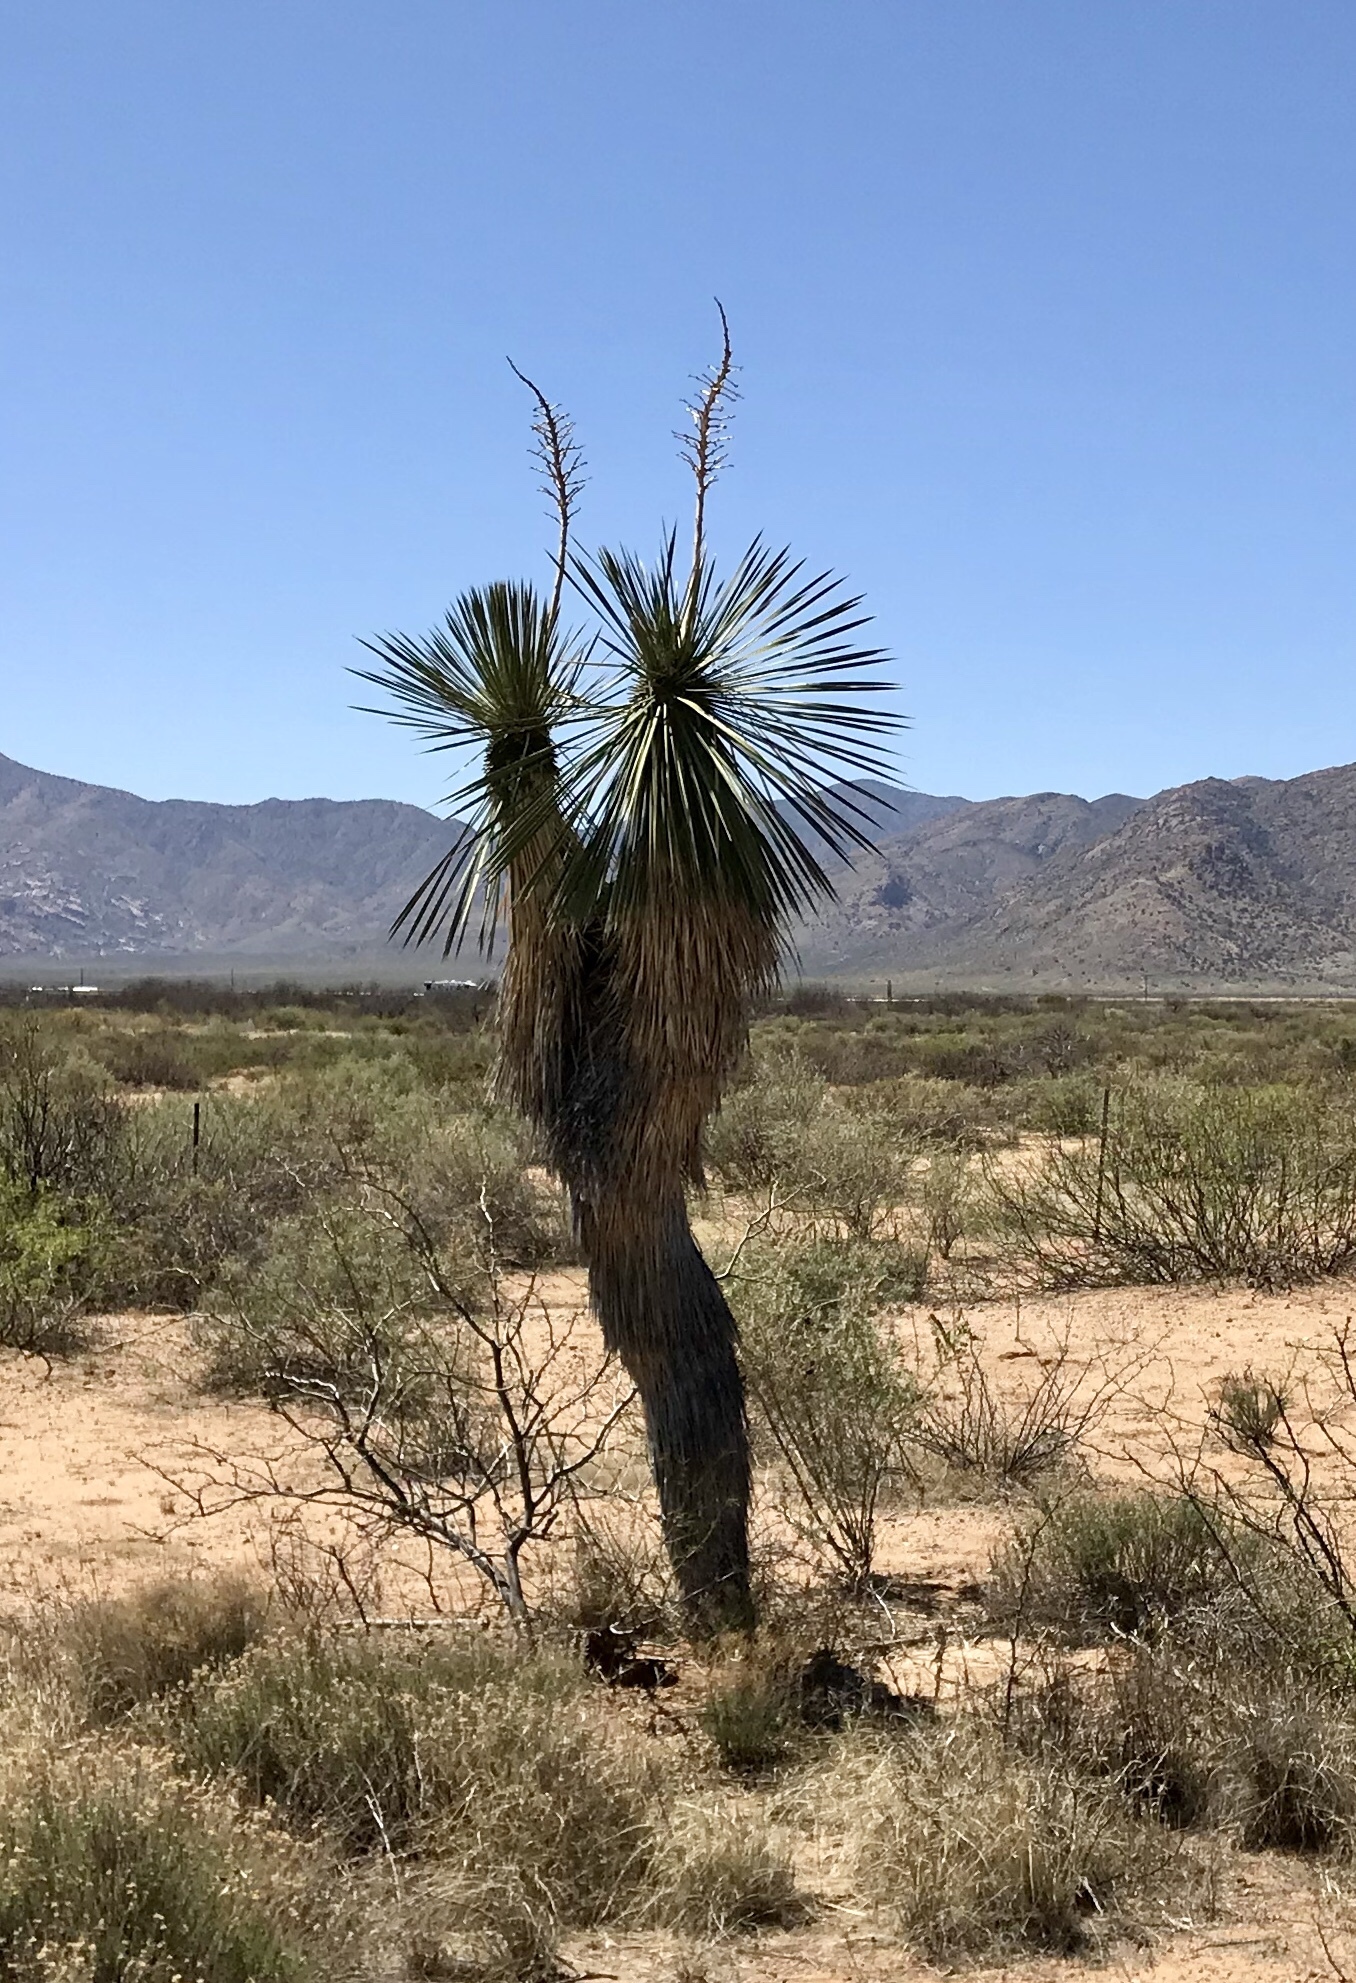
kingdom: Plantae
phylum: Tracheophyta
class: Liliopsida
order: Asparagales
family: Asparagaceae
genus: Yucca
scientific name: Yucca elata
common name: Palmella
